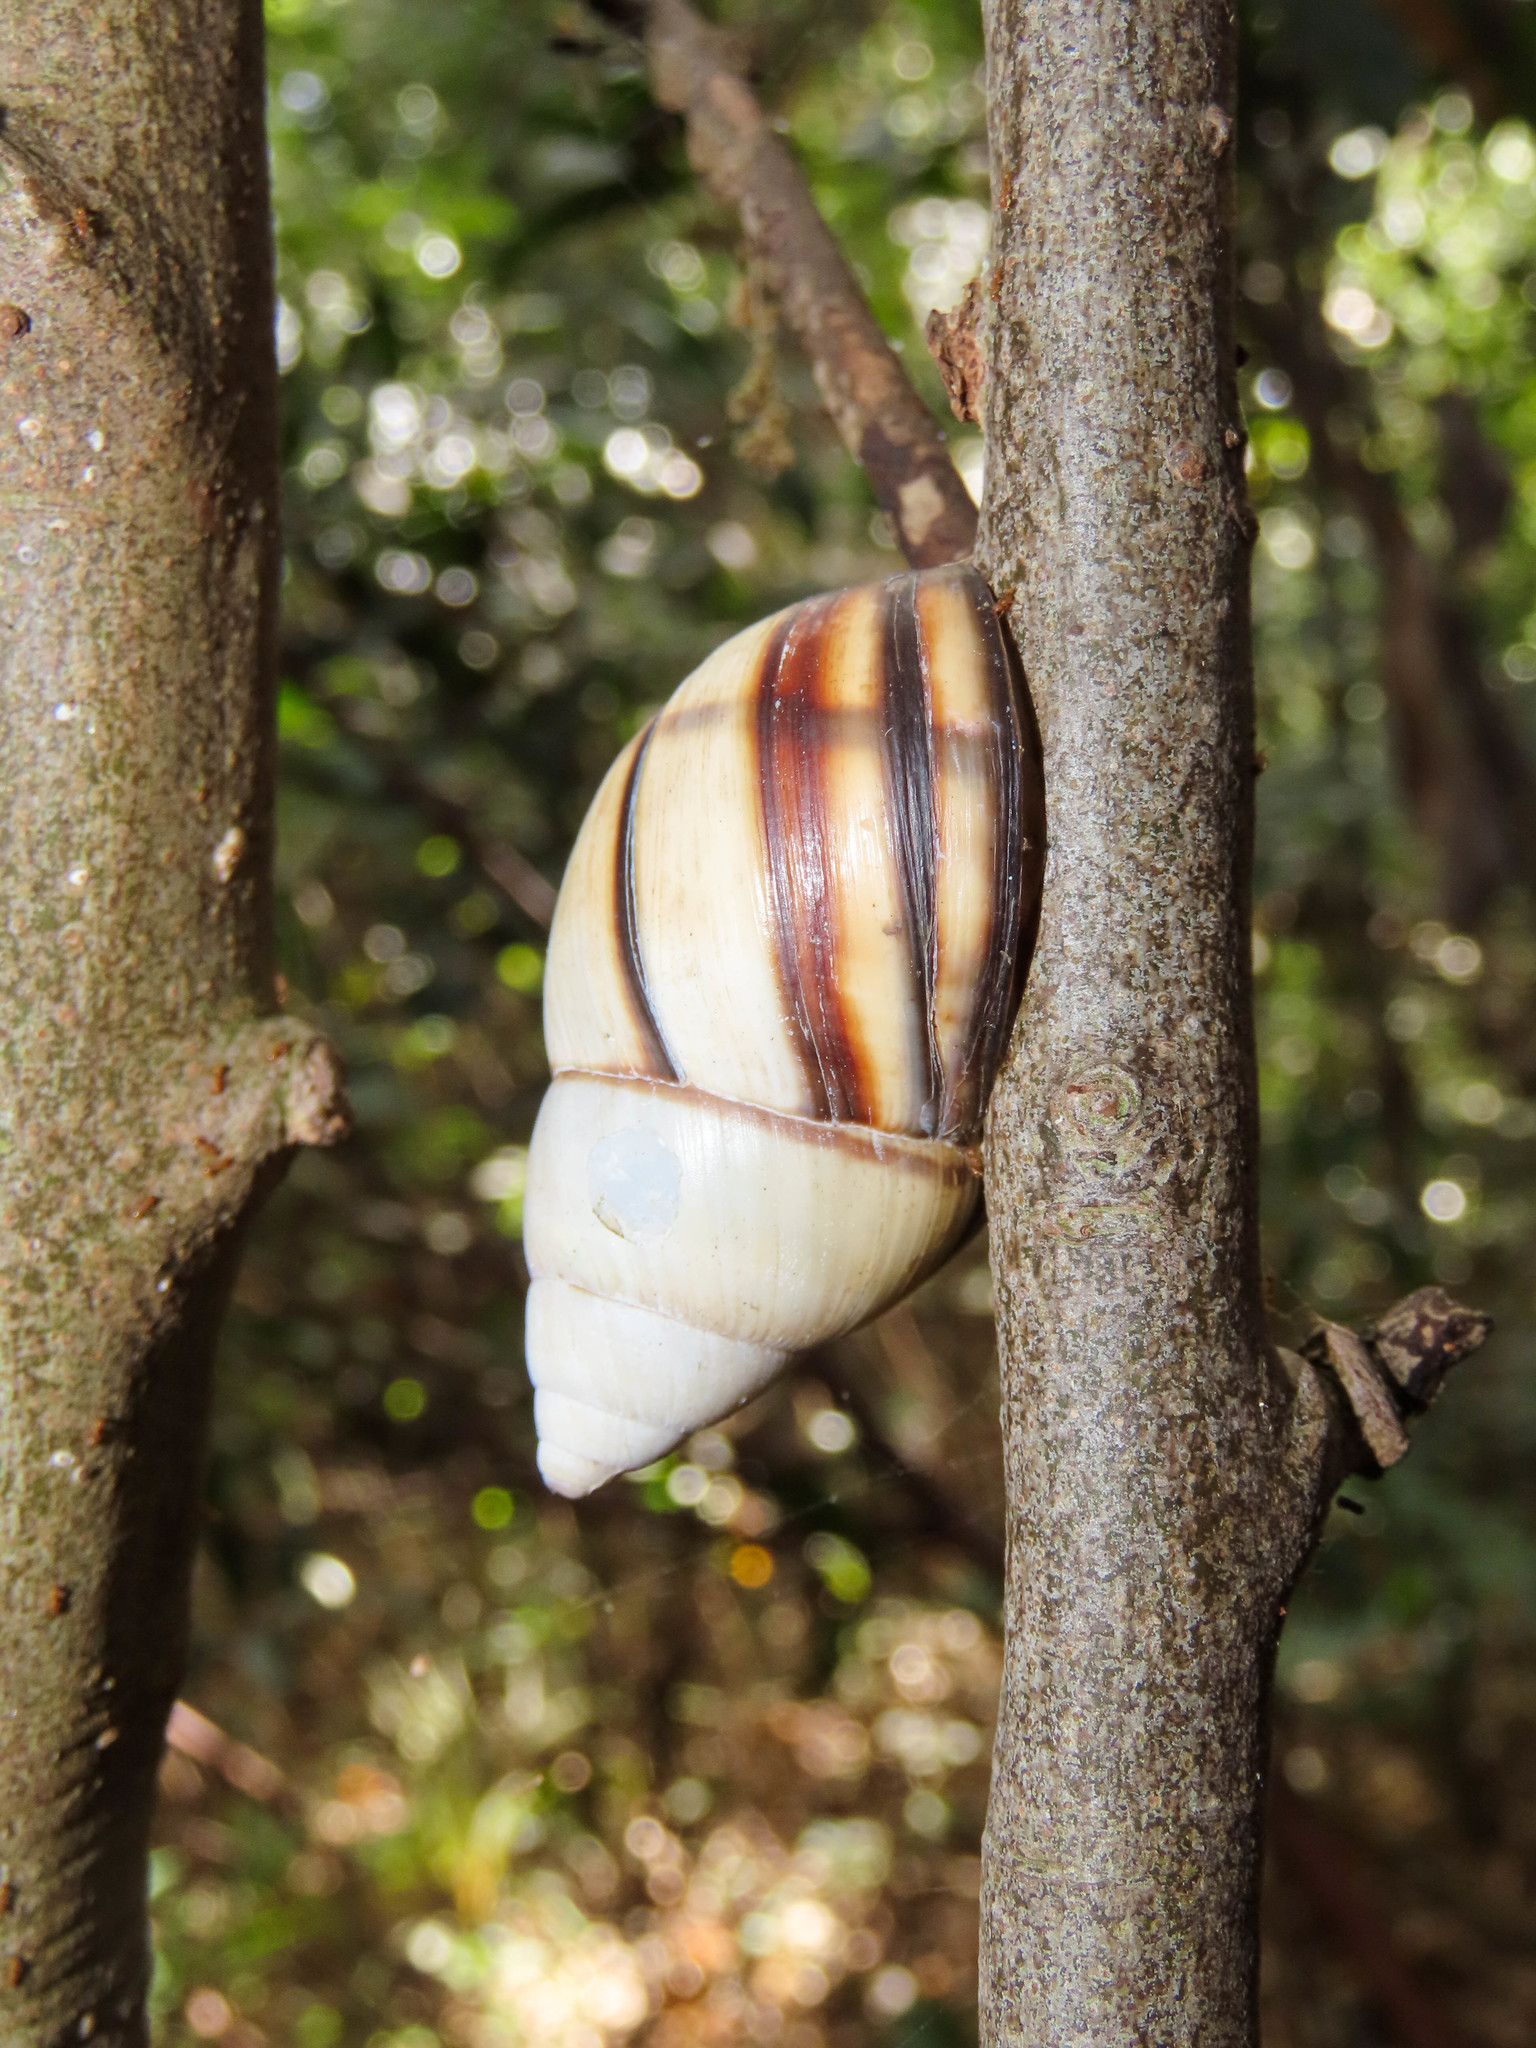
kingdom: Animalia
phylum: Mollusca
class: Gastropoda
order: Stylommatophora
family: Orthalicidae
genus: Orthalicus
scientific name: Orthalicus floridensis
